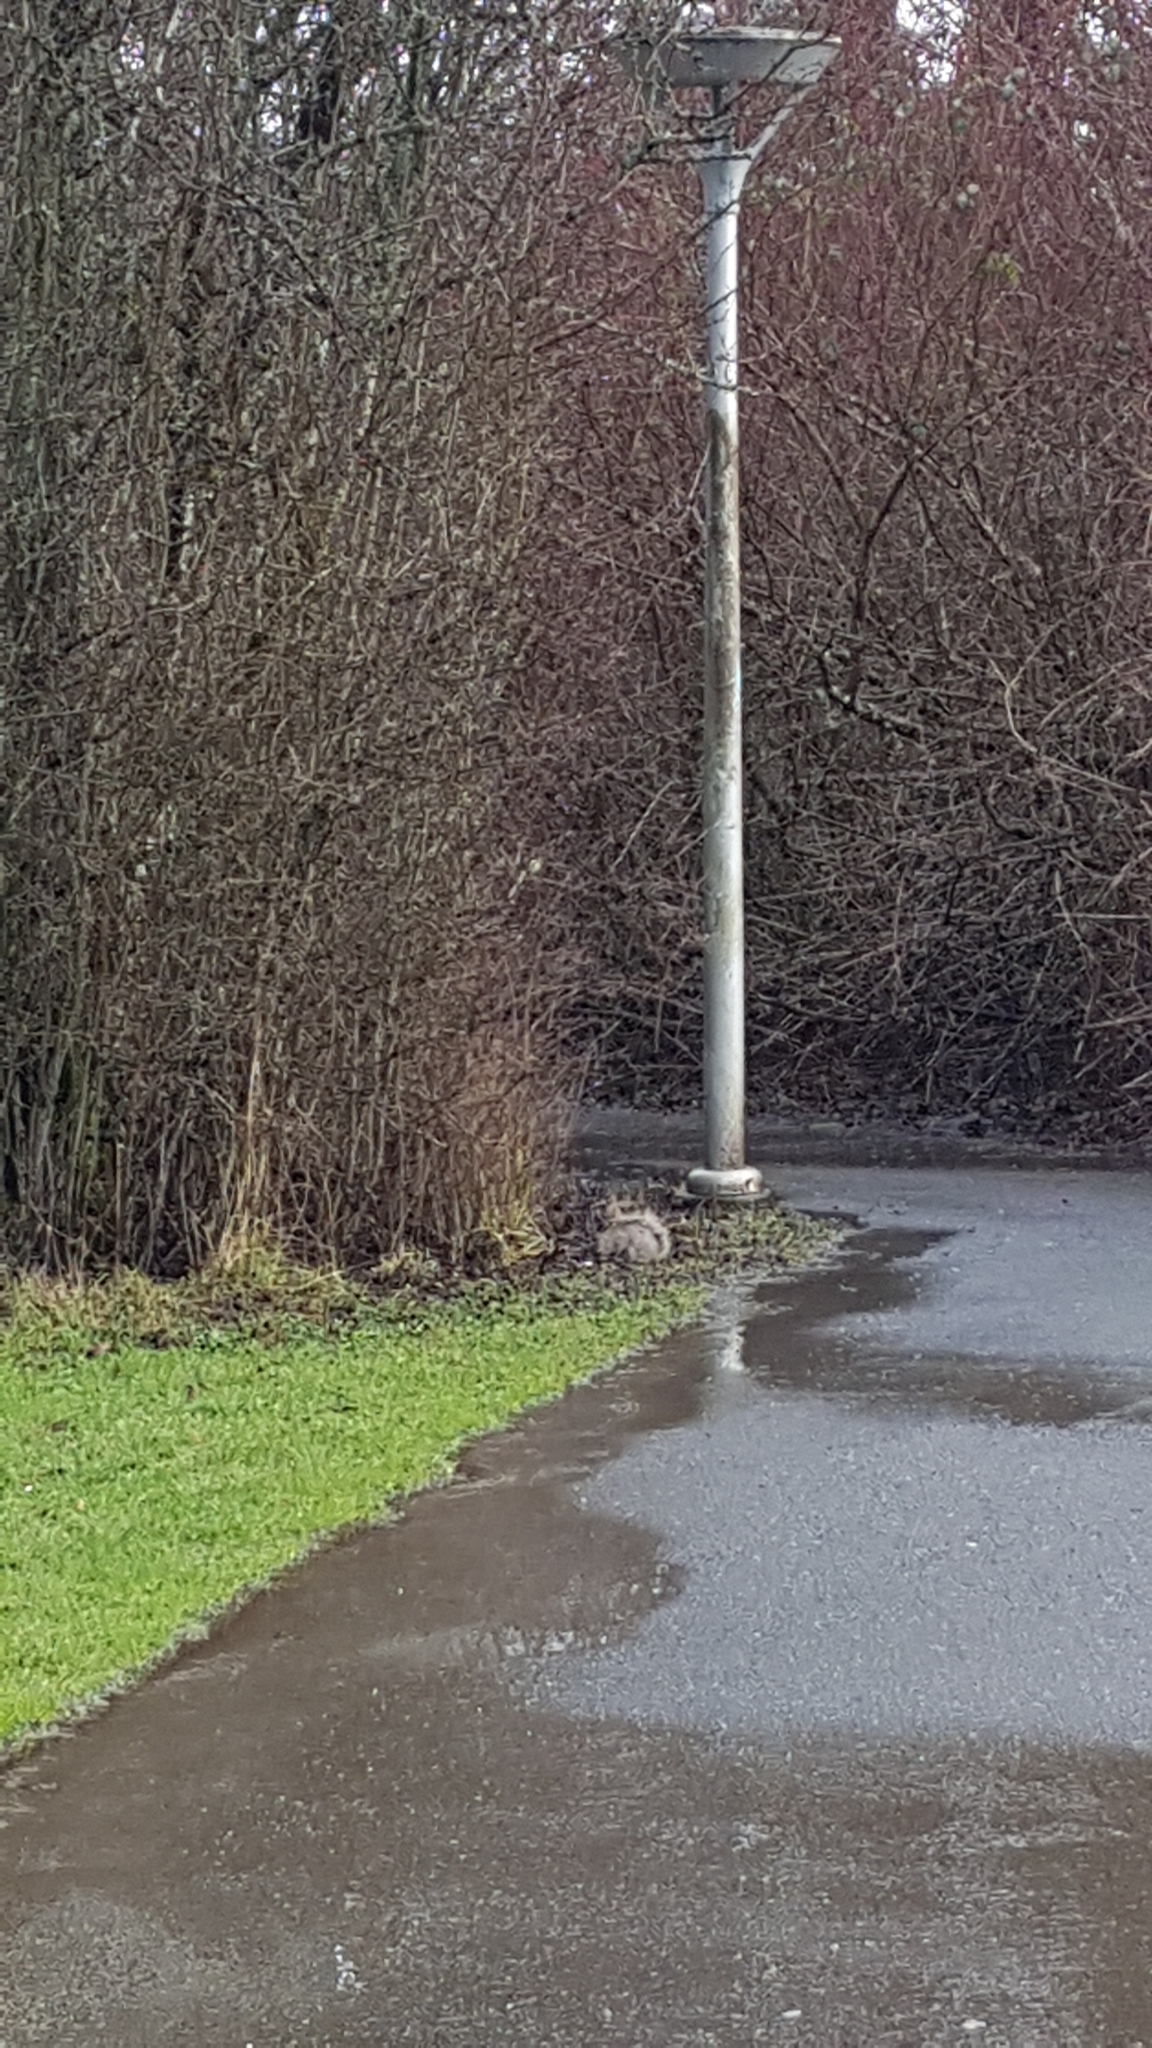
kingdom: Animalia
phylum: Chordata
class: Mammalia
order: Rodentia
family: Sciuridae
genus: Sciurus
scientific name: Sciurus carolinensis
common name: Eastern gray squirrel
